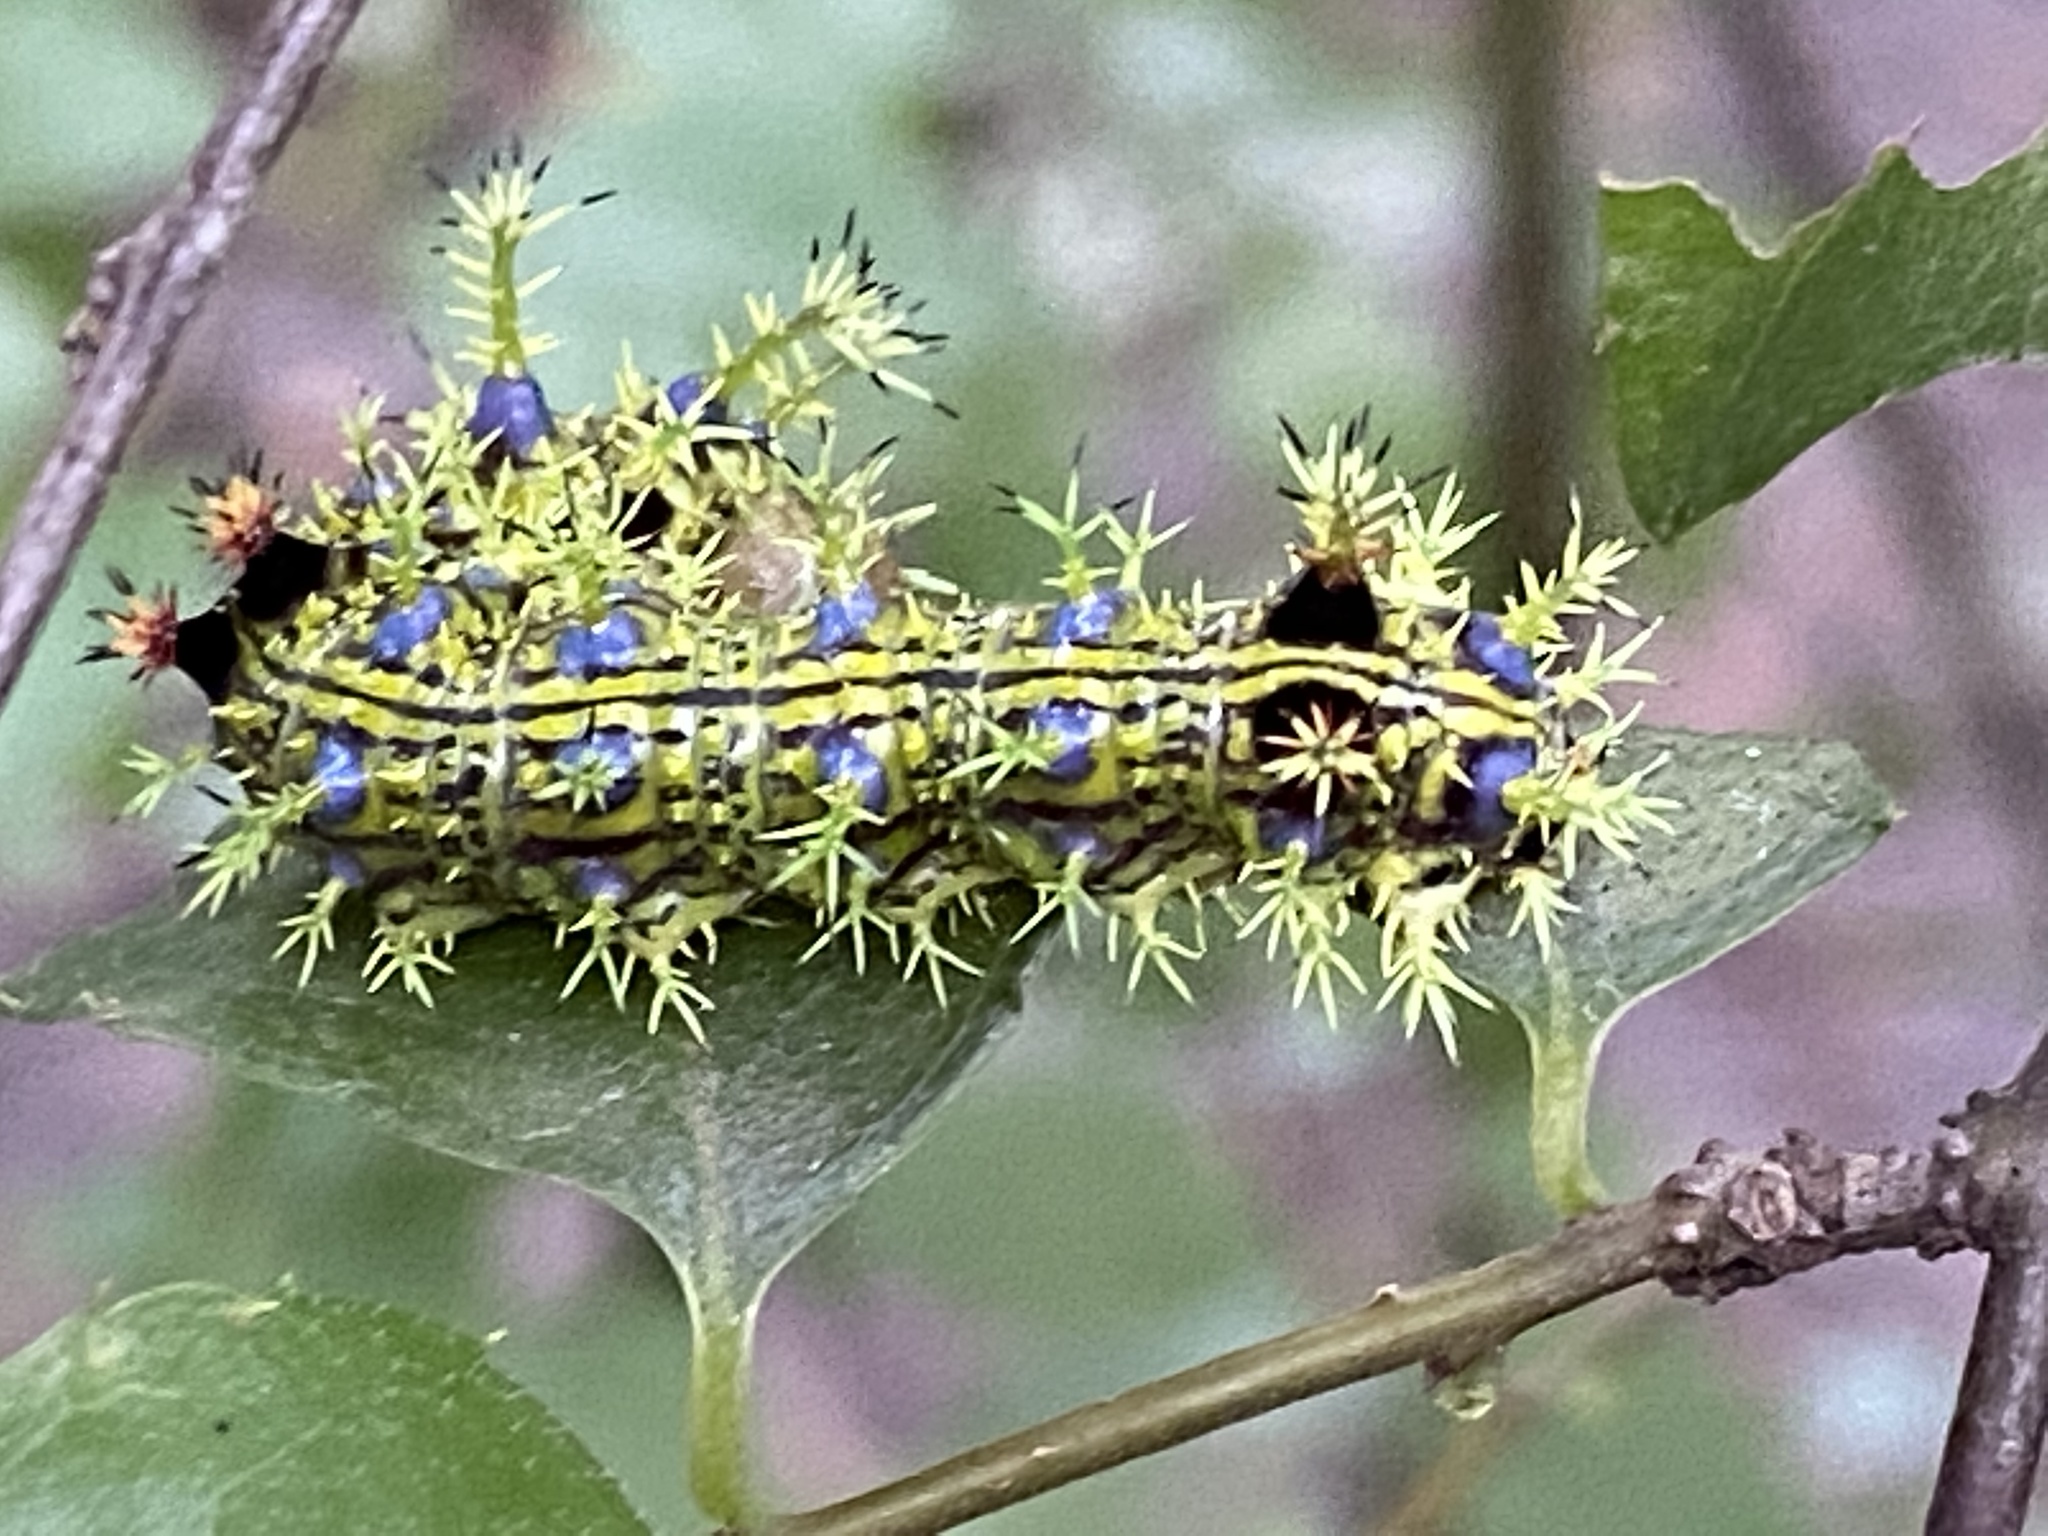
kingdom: Animalia
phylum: Arthropoda
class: Insecta
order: Lepidoptera
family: Nymphalidae
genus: Limenitis
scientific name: Limenitis asura
